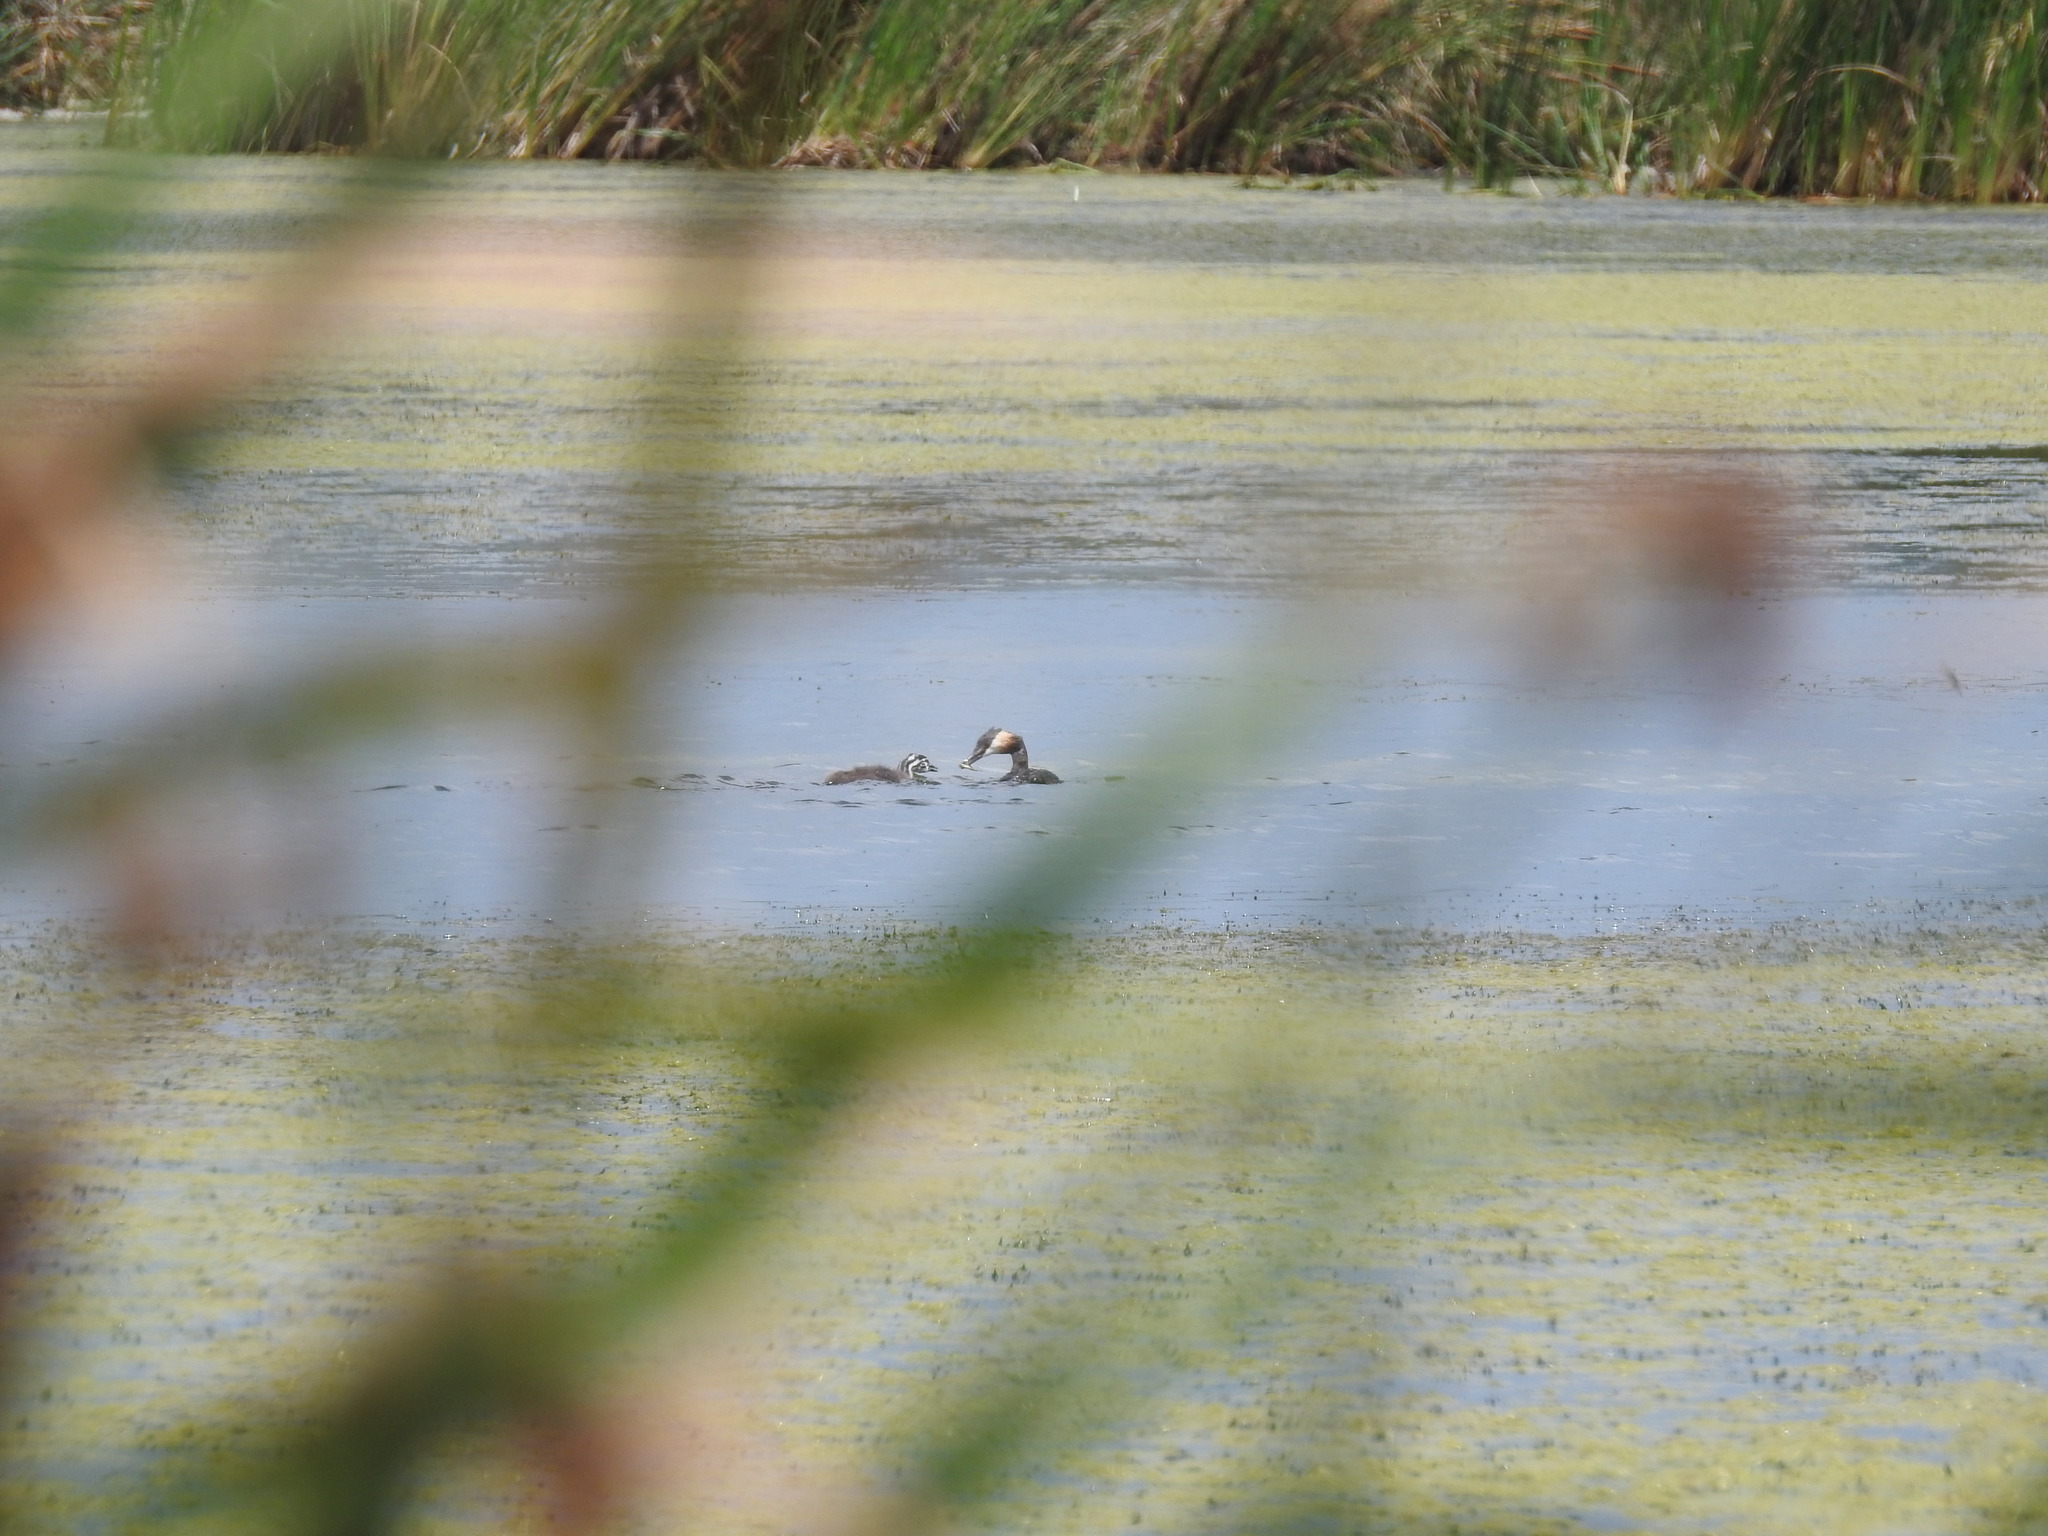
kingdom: Animalia
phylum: Chordata
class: Aves
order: Podicipediformes
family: Podicipedidae
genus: Podiceps
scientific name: Podiceps cristatus
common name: Great crested grebe
